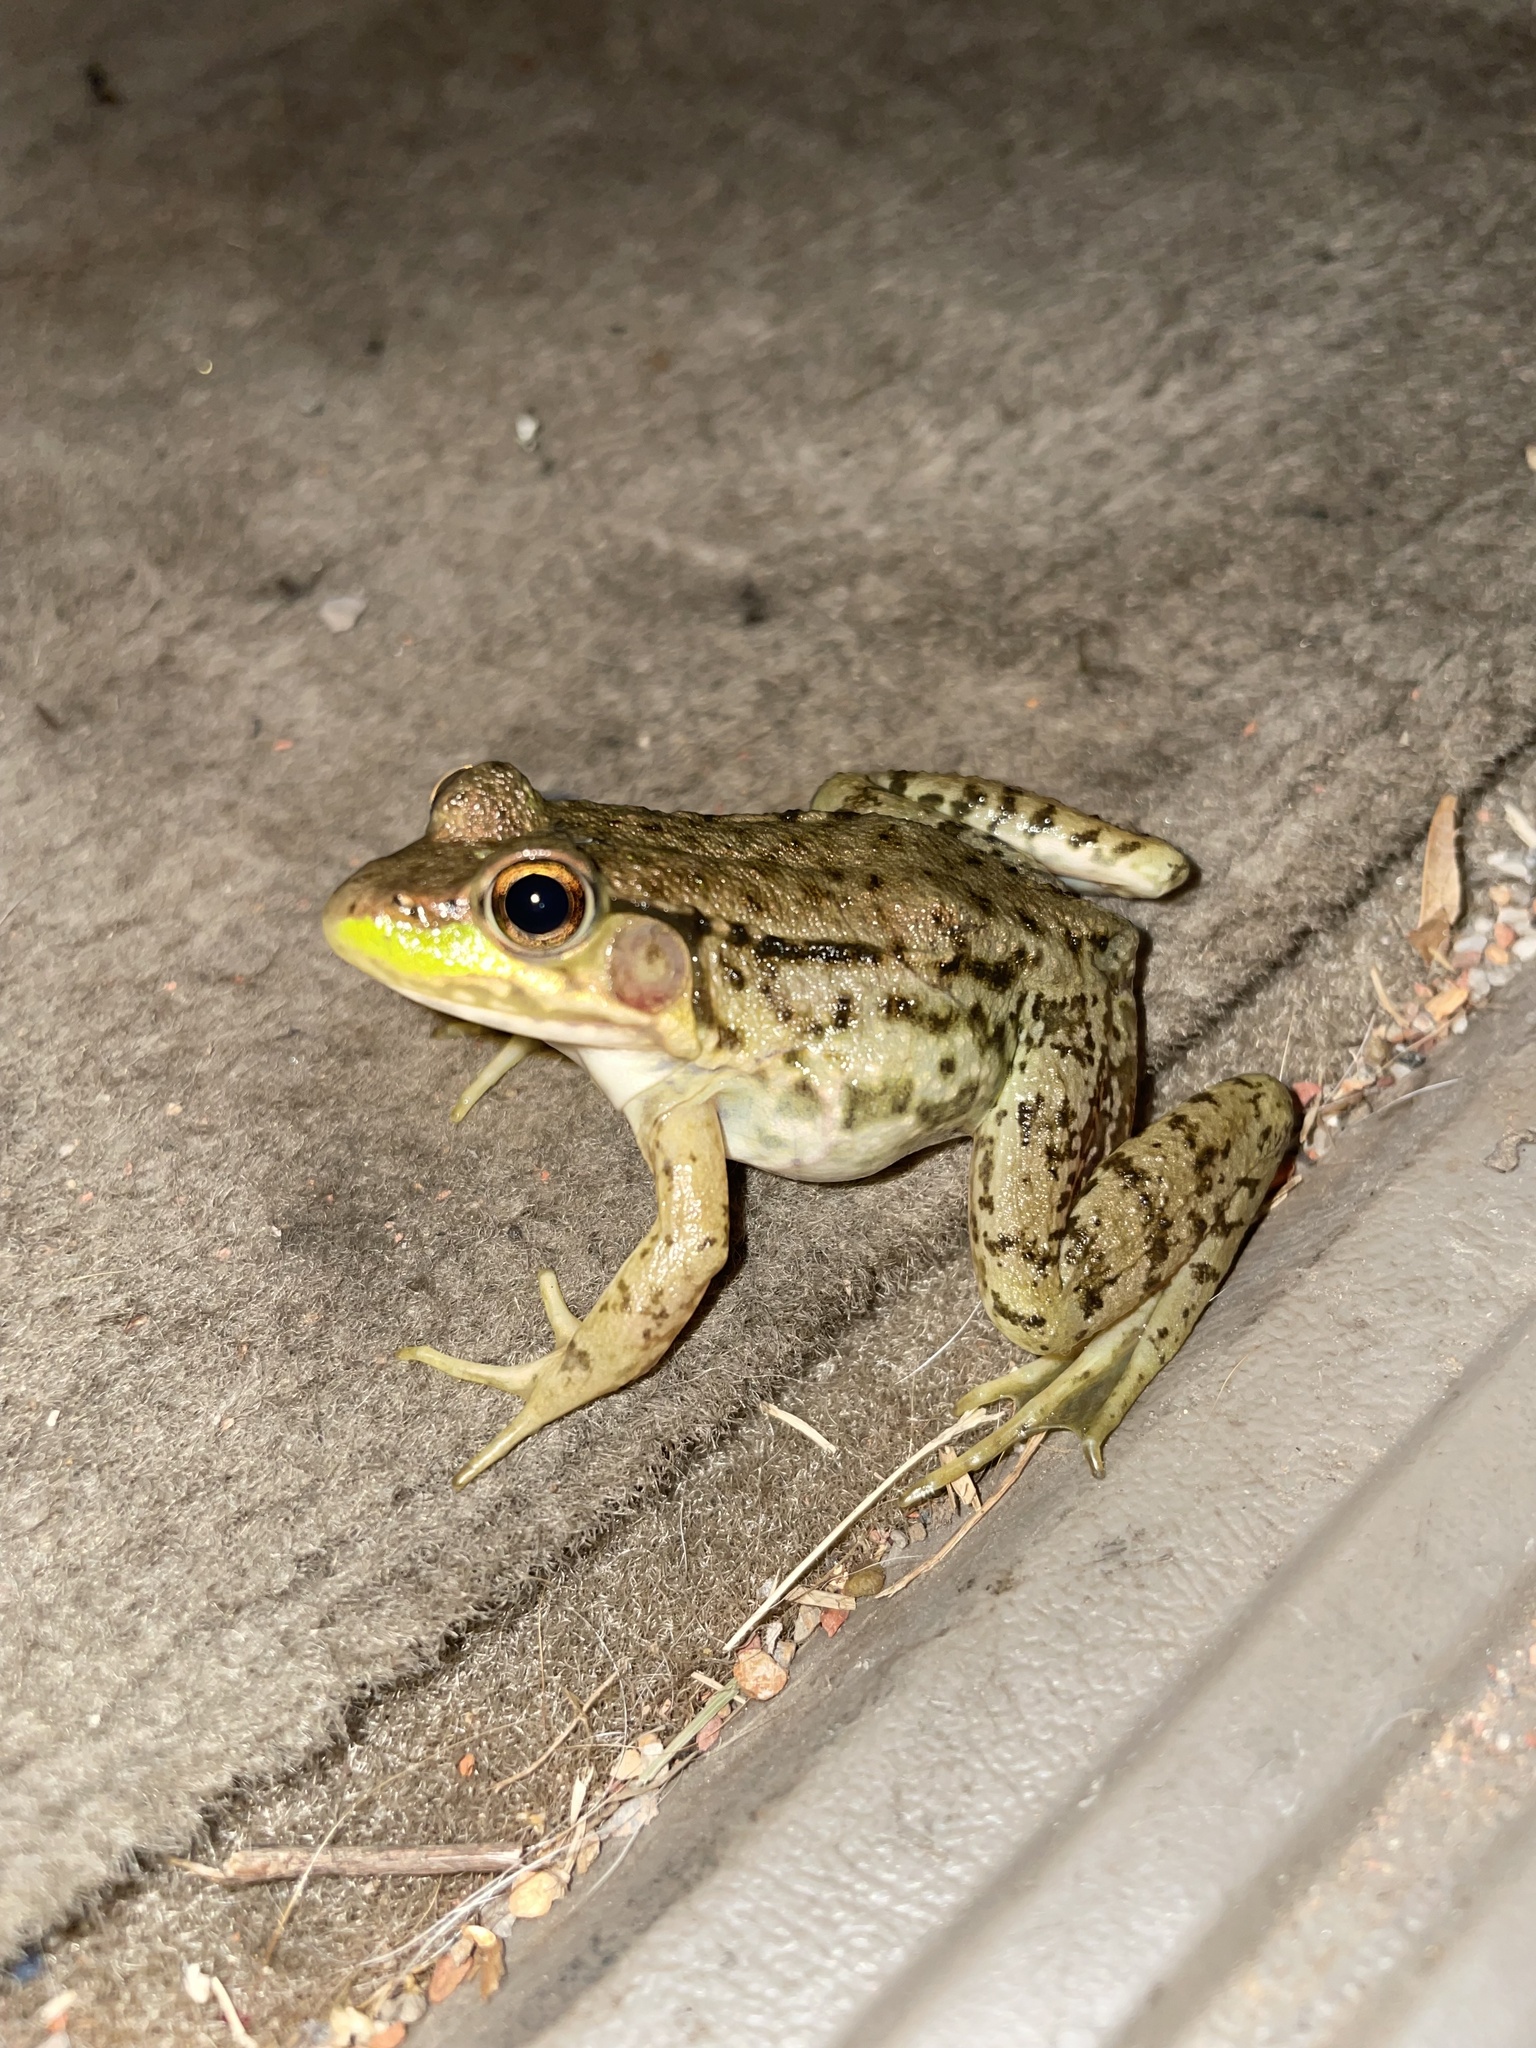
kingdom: Animalia
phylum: Chordata
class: Amphibia
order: Anura
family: Ranidae
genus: Lithobates
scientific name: Lithobates clamitans
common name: Green frog
